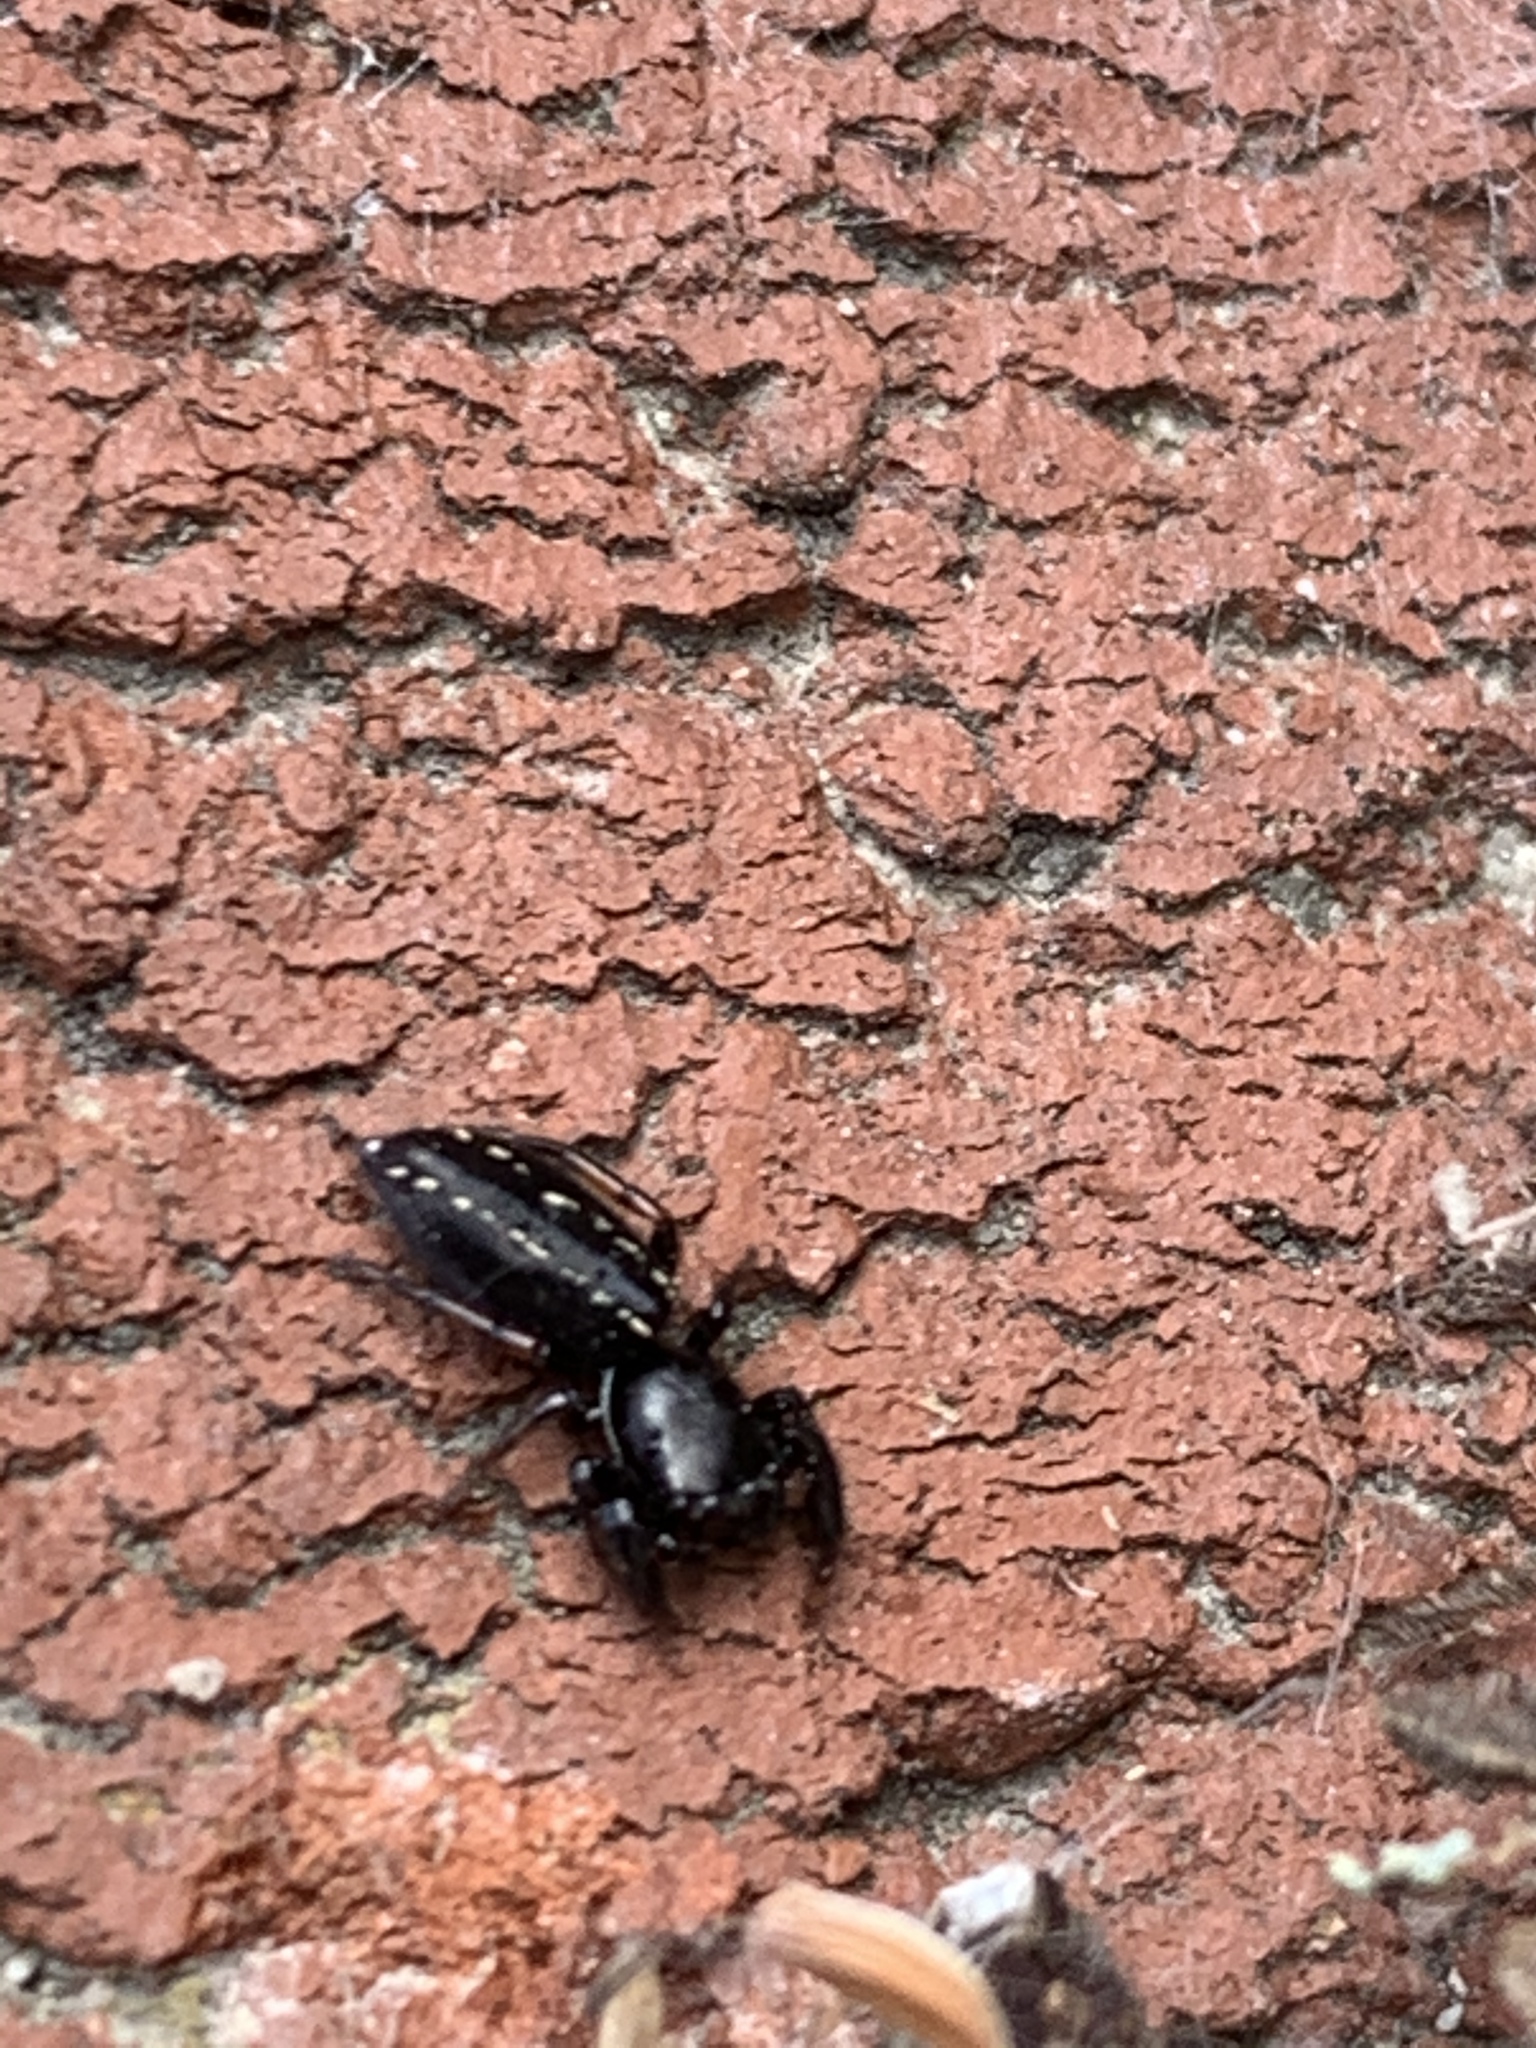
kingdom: Animalia
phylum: Arthropoda
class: Arachnida
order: Araneae
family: Salticidae
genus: Metacyrba
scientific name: Metacyrba taeniola
